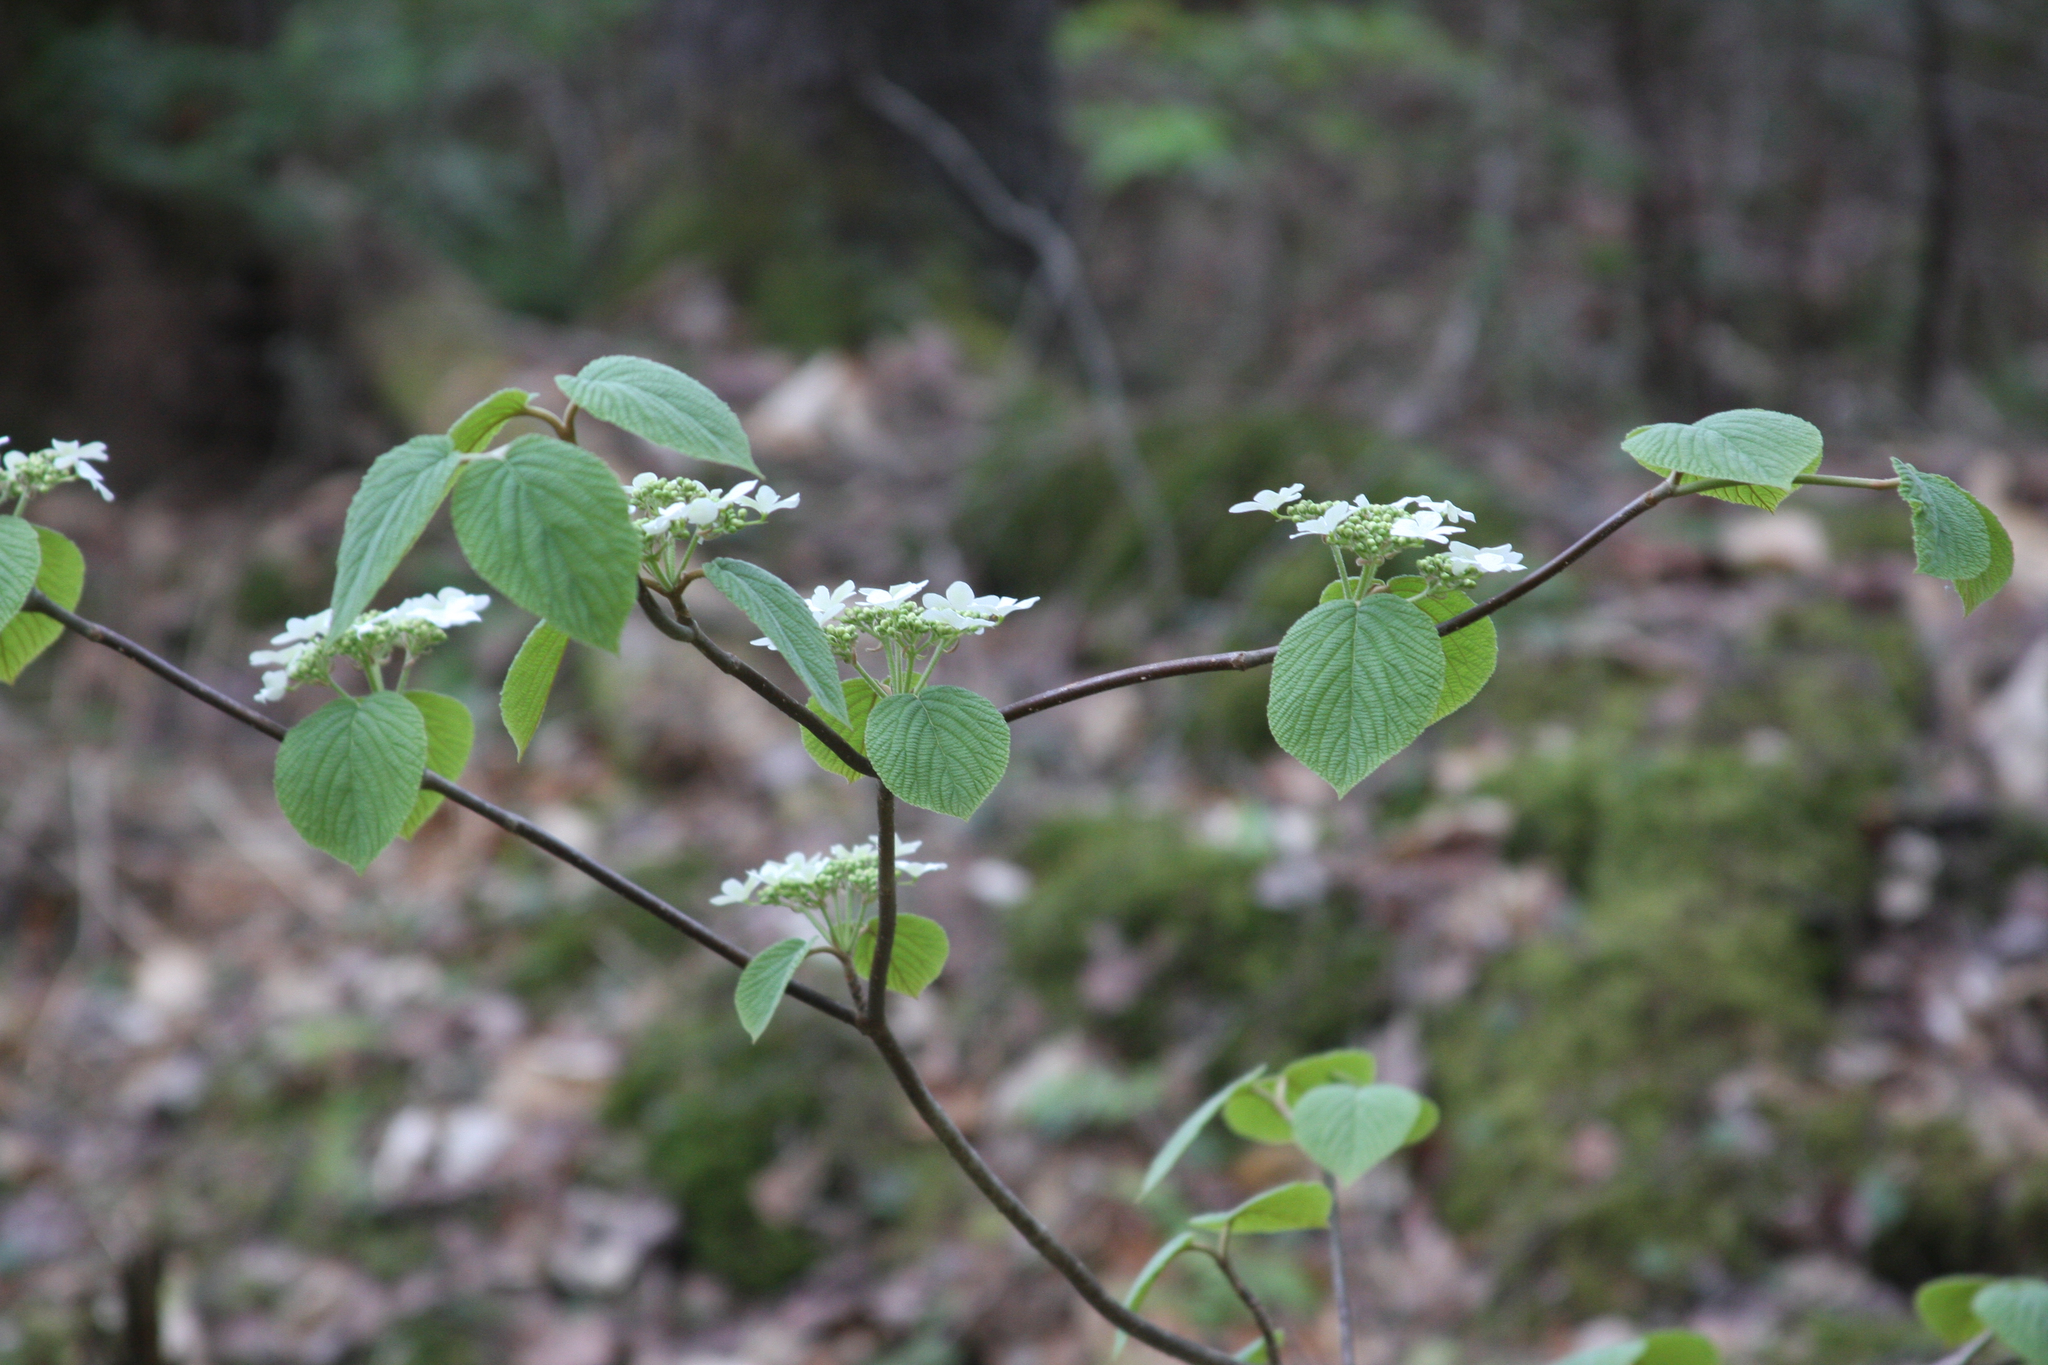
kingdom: Plantae
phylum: Tracheophyta
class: Magnoliopsida
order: Dipsacales
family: Viburnaceae
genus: Viburnum
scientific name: Viburnum lantanoides
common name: Hobblebush
